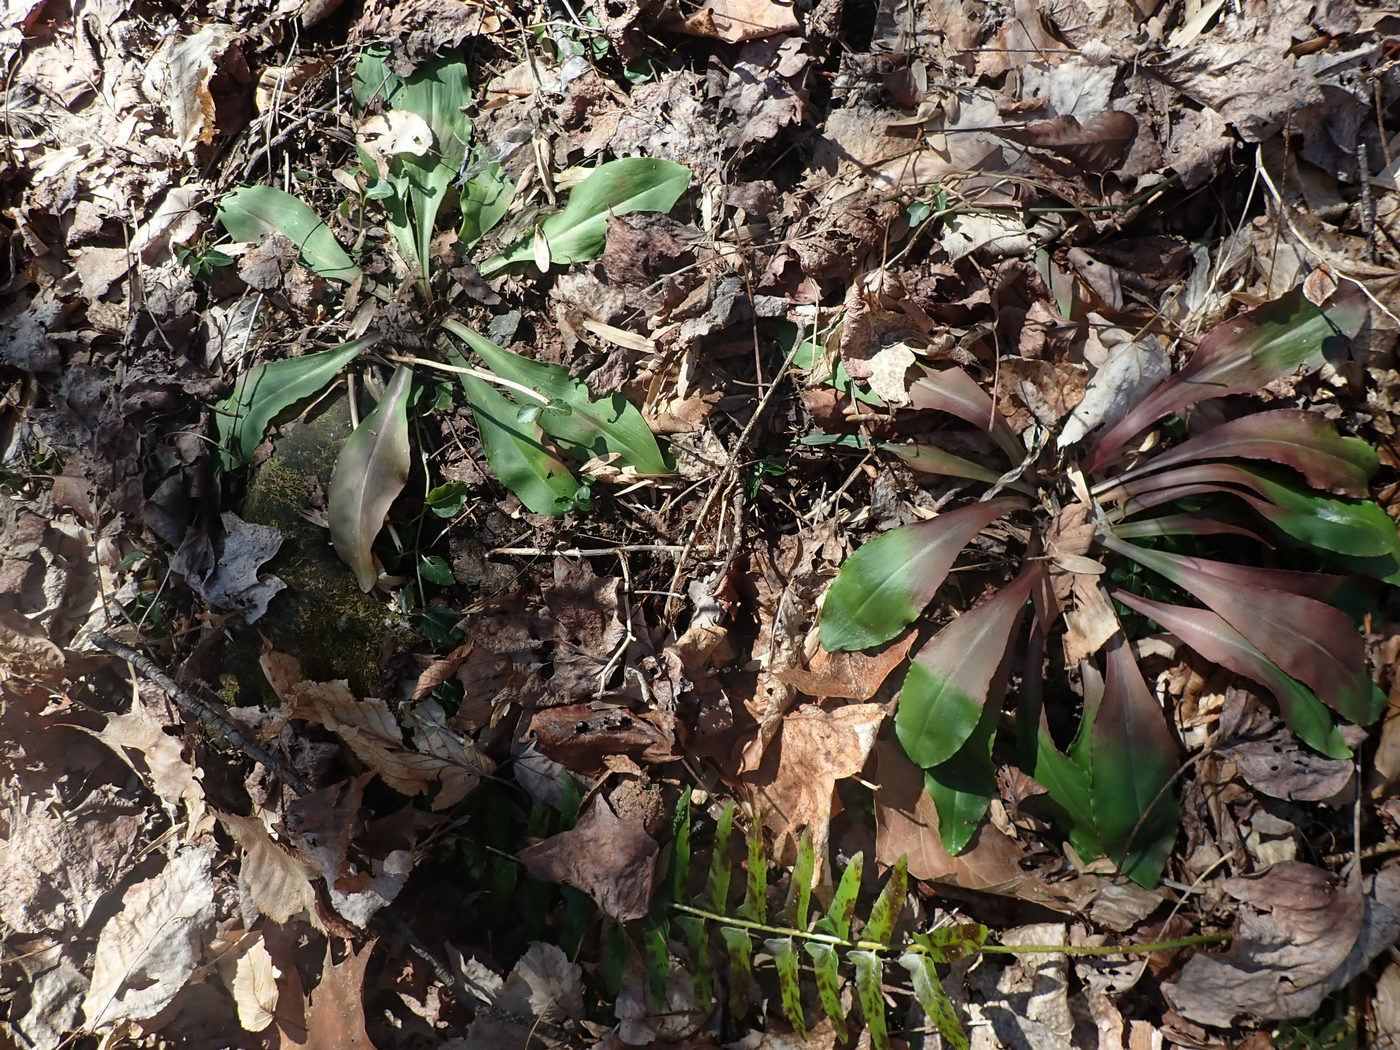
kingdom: Plantae
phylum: Tracheophyta
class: Liliopsida
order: Liliales
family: Melanthiaceae
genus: Chamaelirium
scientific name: Chamaelirium luteum
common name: Fairy-wand
